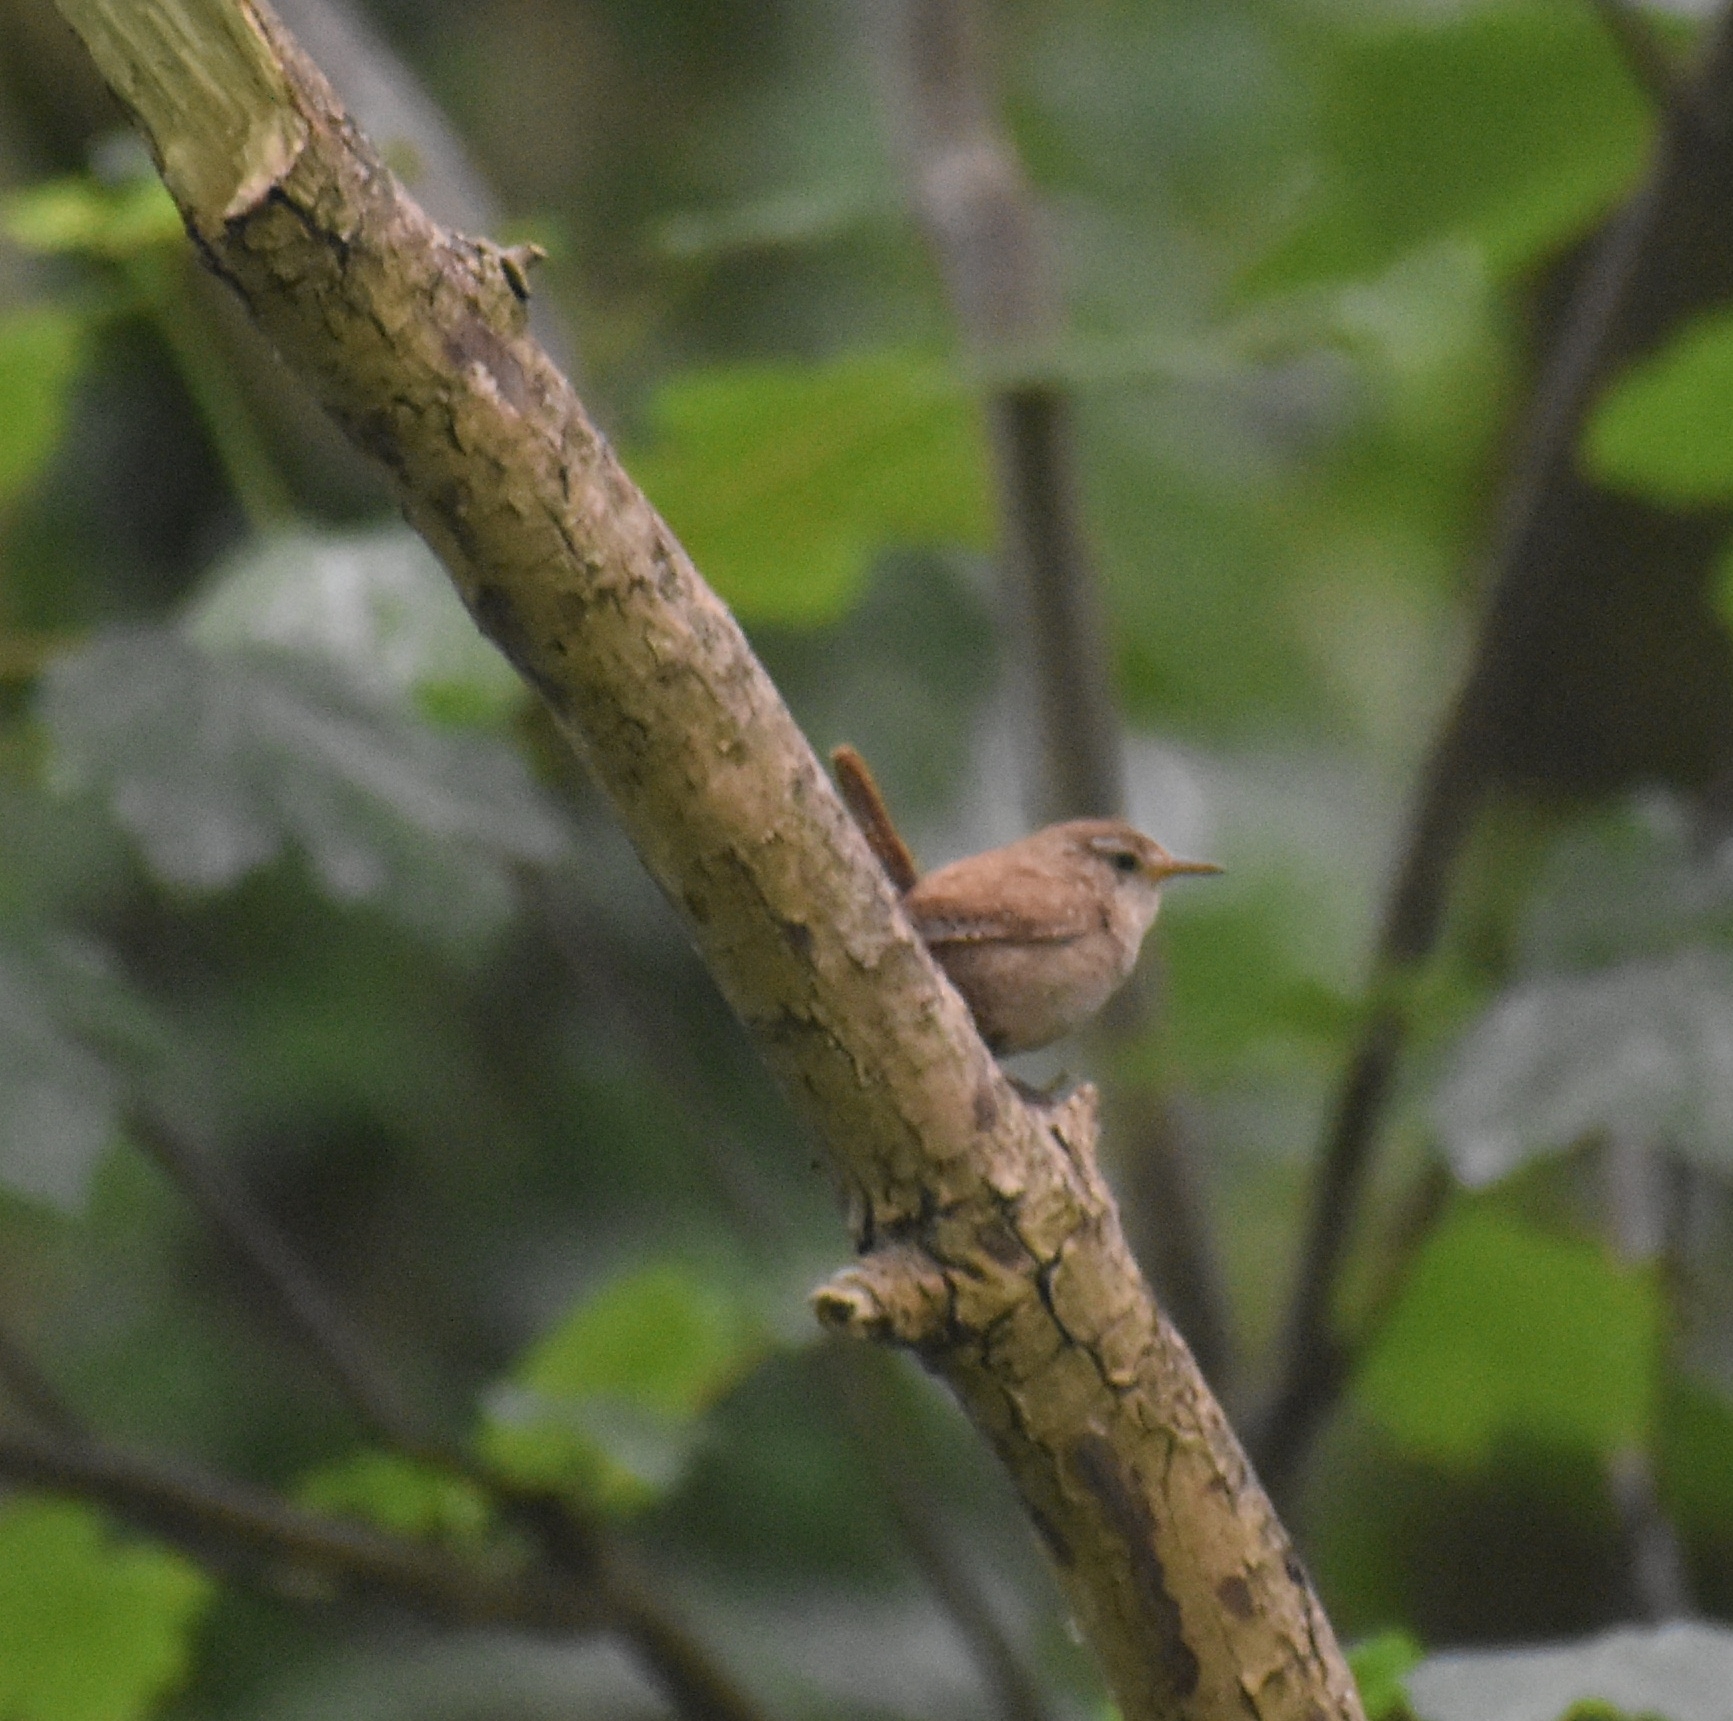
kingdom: Animalia
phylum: Chordata
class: Aves
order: Passeriformes
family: Troglodytidae
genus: Troglodytes
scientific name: Troglodytes troglodytes
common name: Eurasian wren
